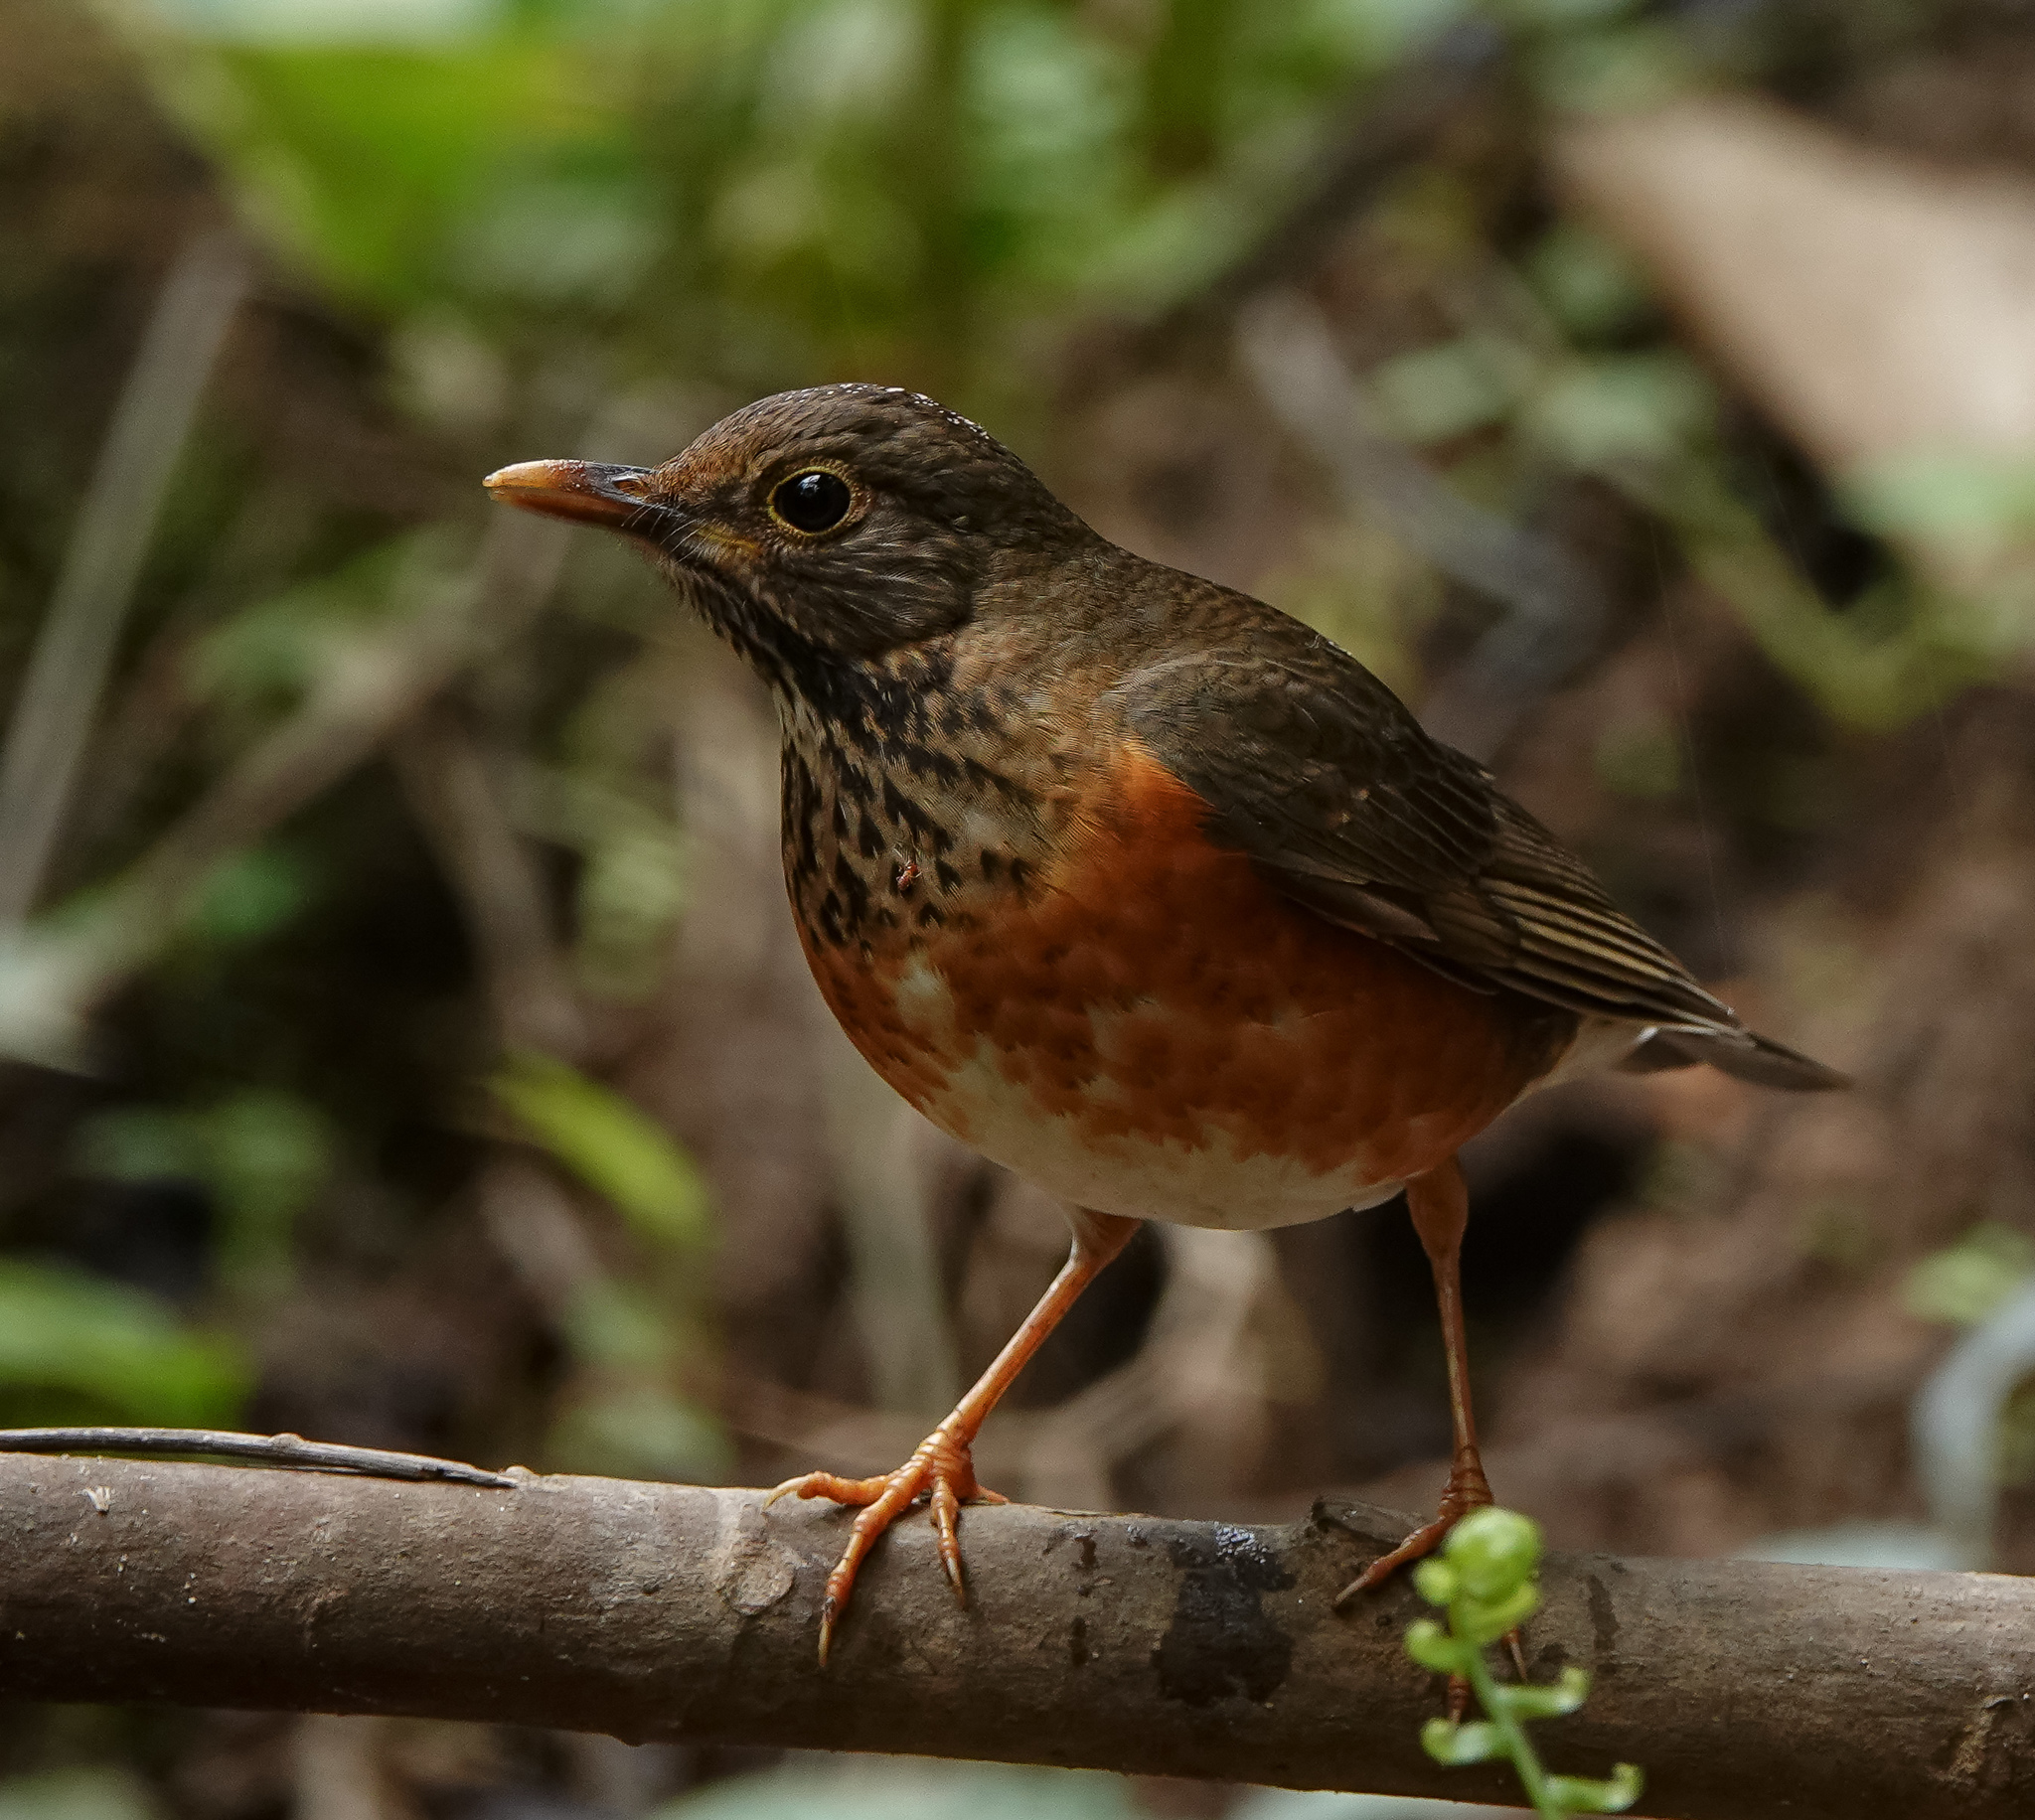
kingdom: Animalia
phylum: Chordata
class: Aves
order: Passeriformes
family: Turdidae
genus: Turdus
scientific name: Turdus dissimilis
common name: Black-breasted thrush
